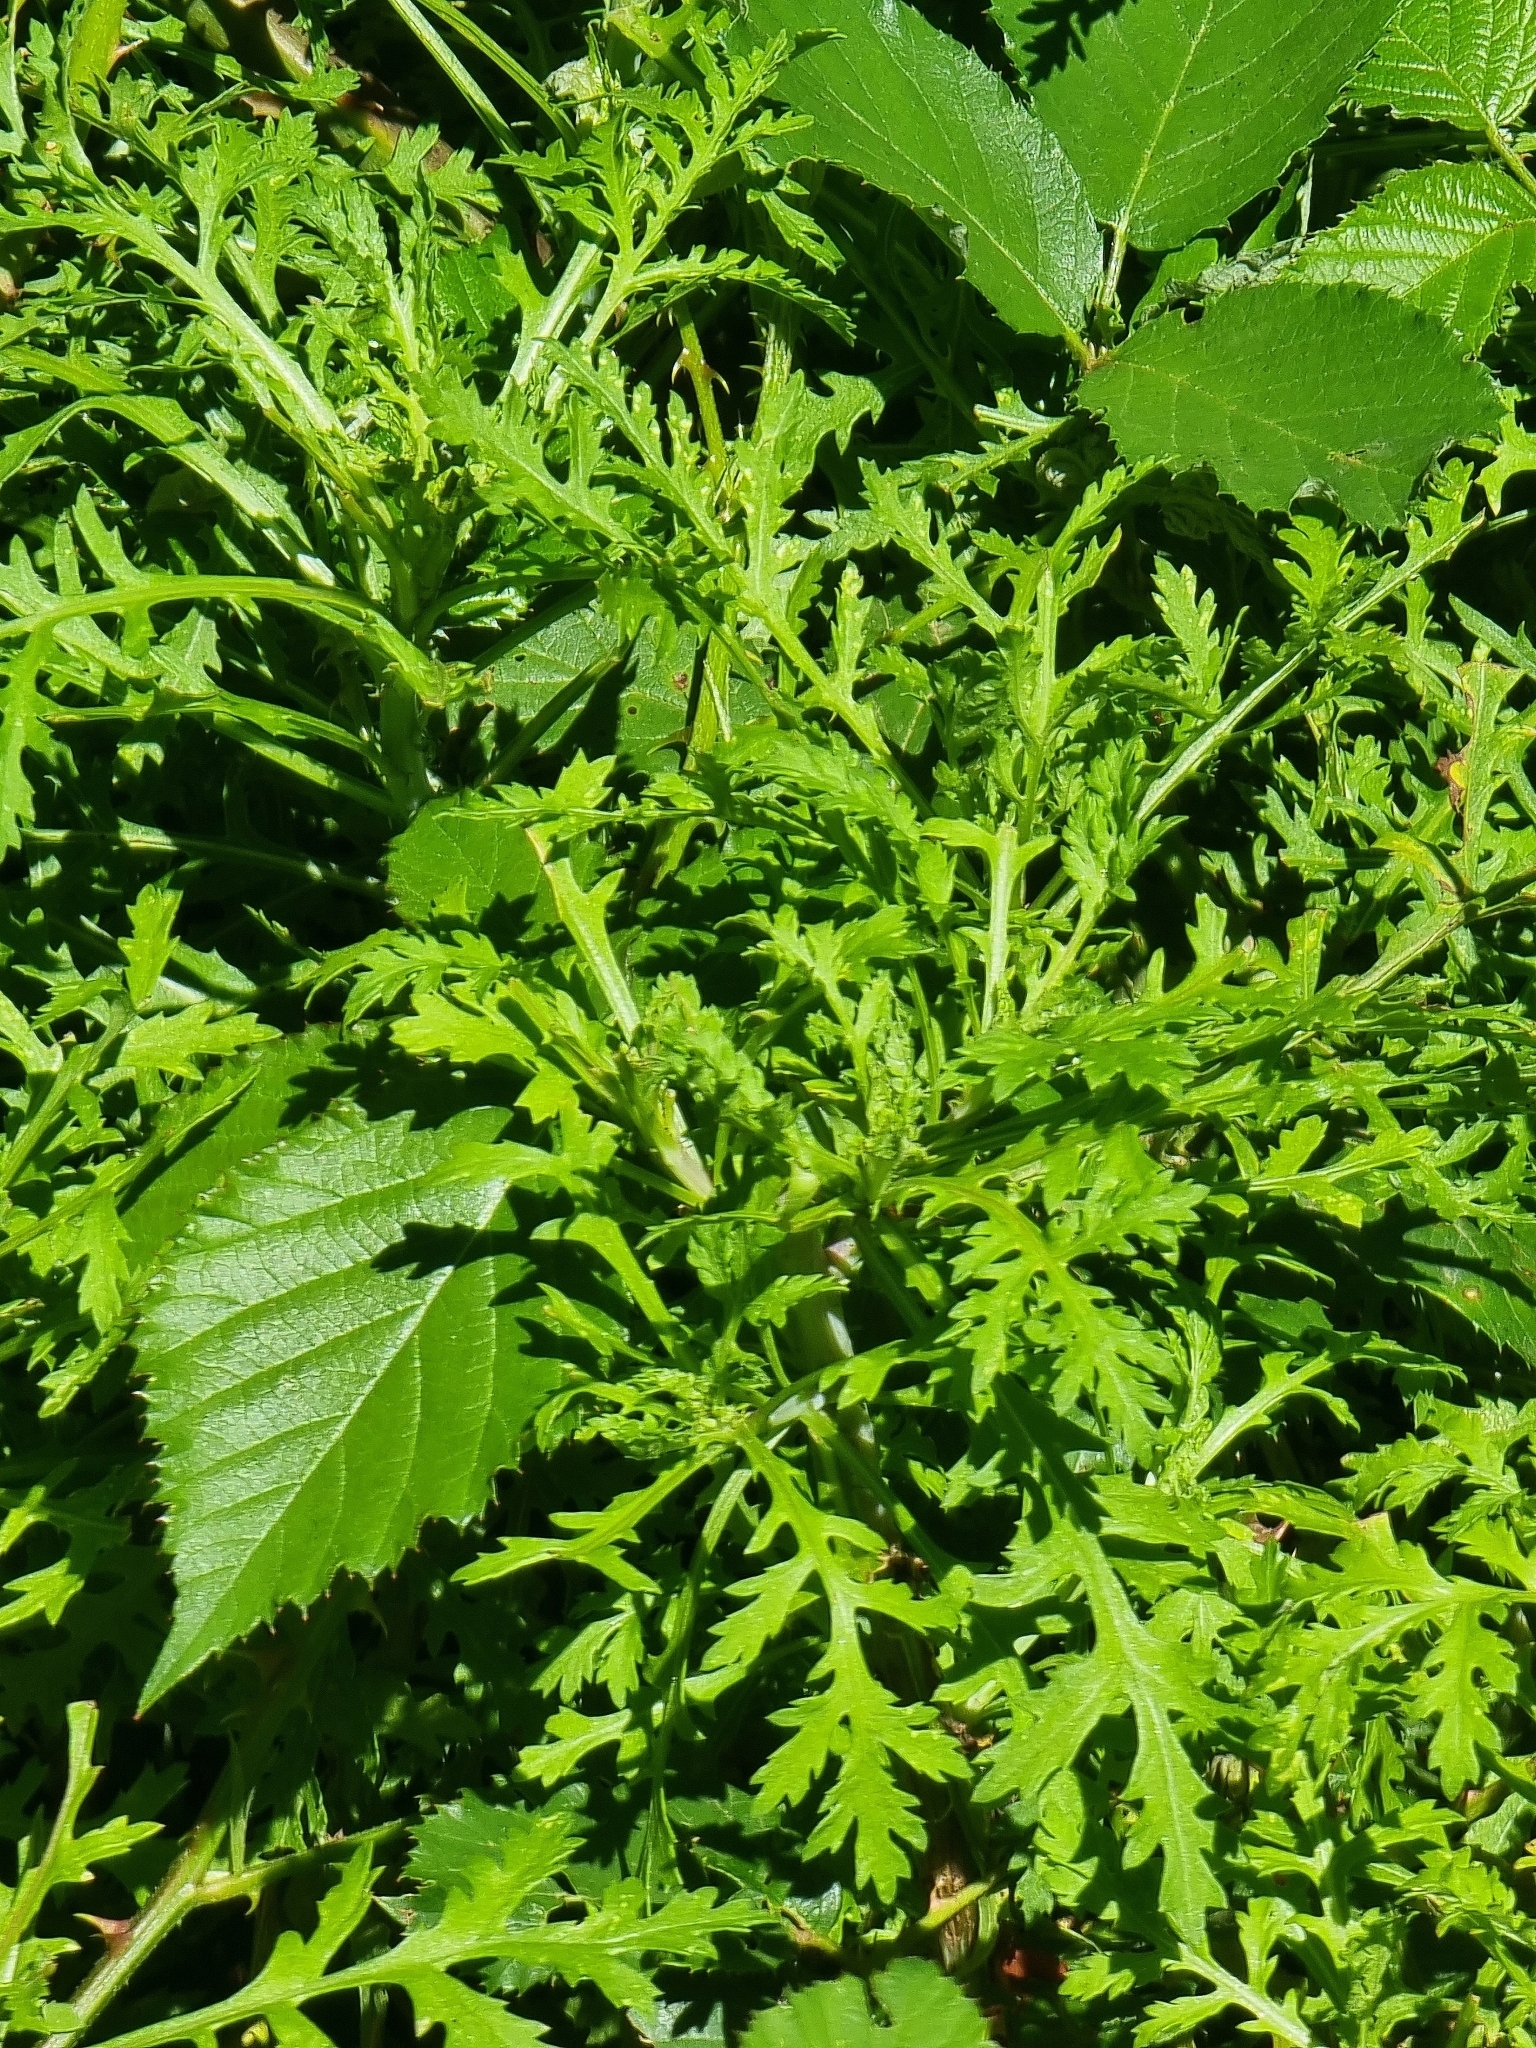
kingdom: Plantae
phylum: Tracheophyta
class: Magnoliopsida
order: Asterales
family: Asteraceae
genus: Argyranthemum
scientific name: Argyranthemum dissectum
